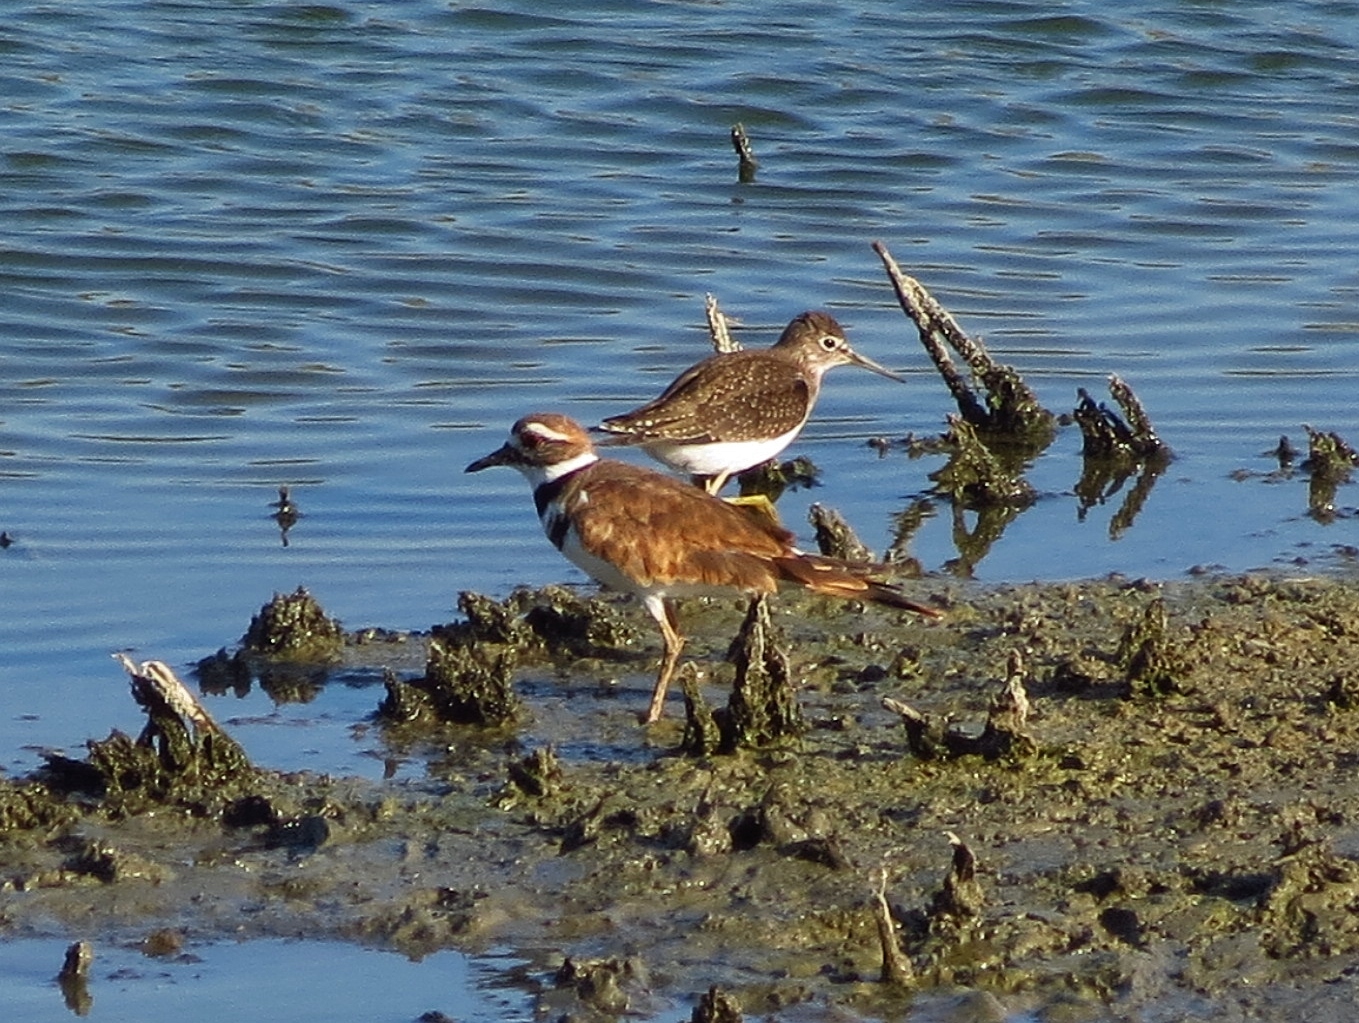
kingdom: Animalia
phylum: Chordata
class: Aves
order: Charadriiformes
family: Charadriidae
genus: Charadrius
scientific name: Charadrius vociferus
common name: Killdeer
